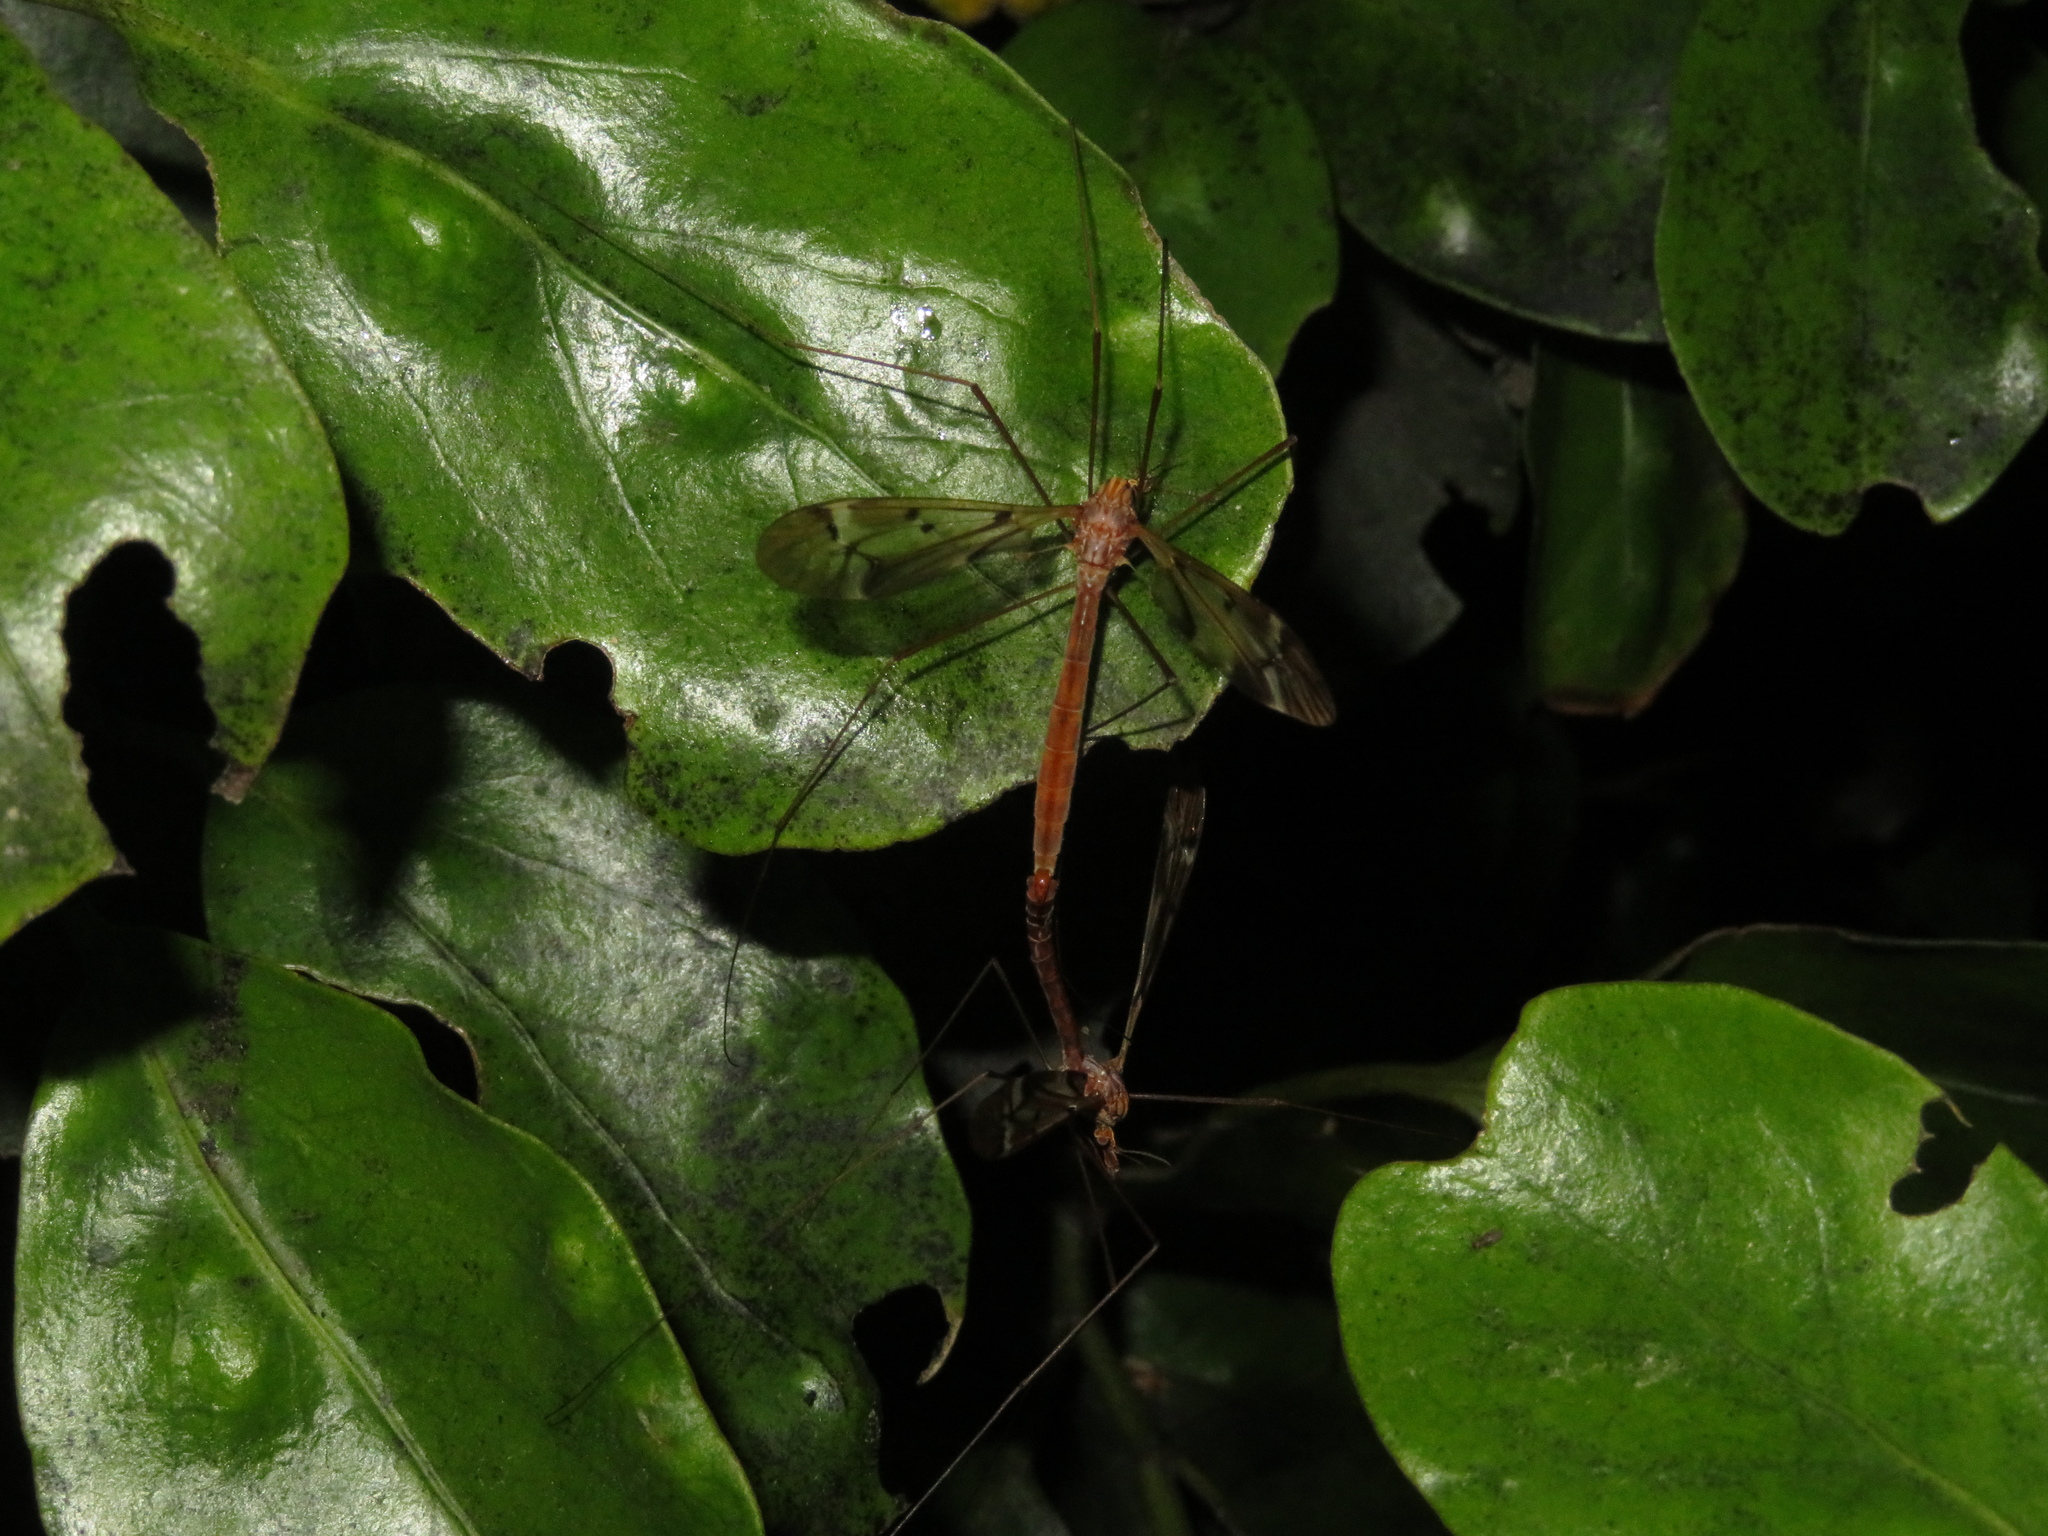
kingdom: Animalia
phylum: Arthropoda
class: Insecta
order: Diptera
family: Tipulidae
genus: Zelandotipula
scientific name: Zelandotipula fulva
